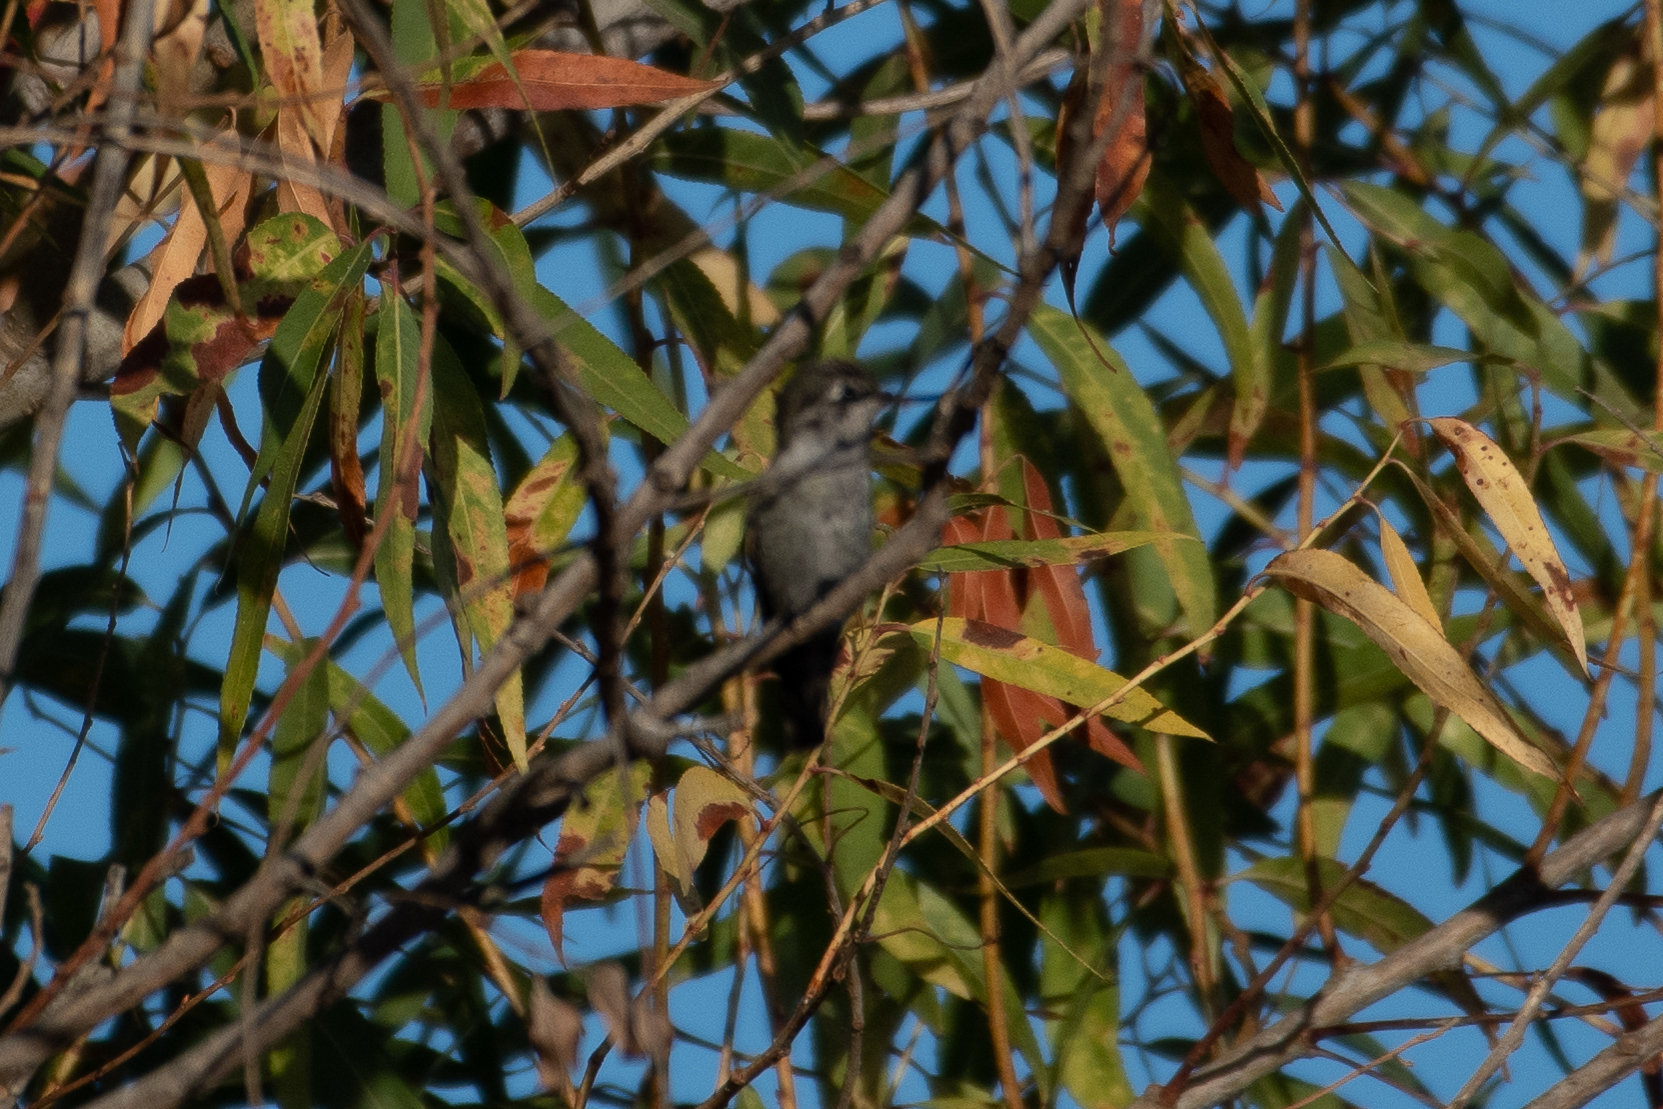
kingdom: Animalia
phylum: Chordata
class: Aves
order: Apodiformes
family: Trochilidae
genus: Calypte
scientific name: Calypte anna
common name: Anna's hummingbird
